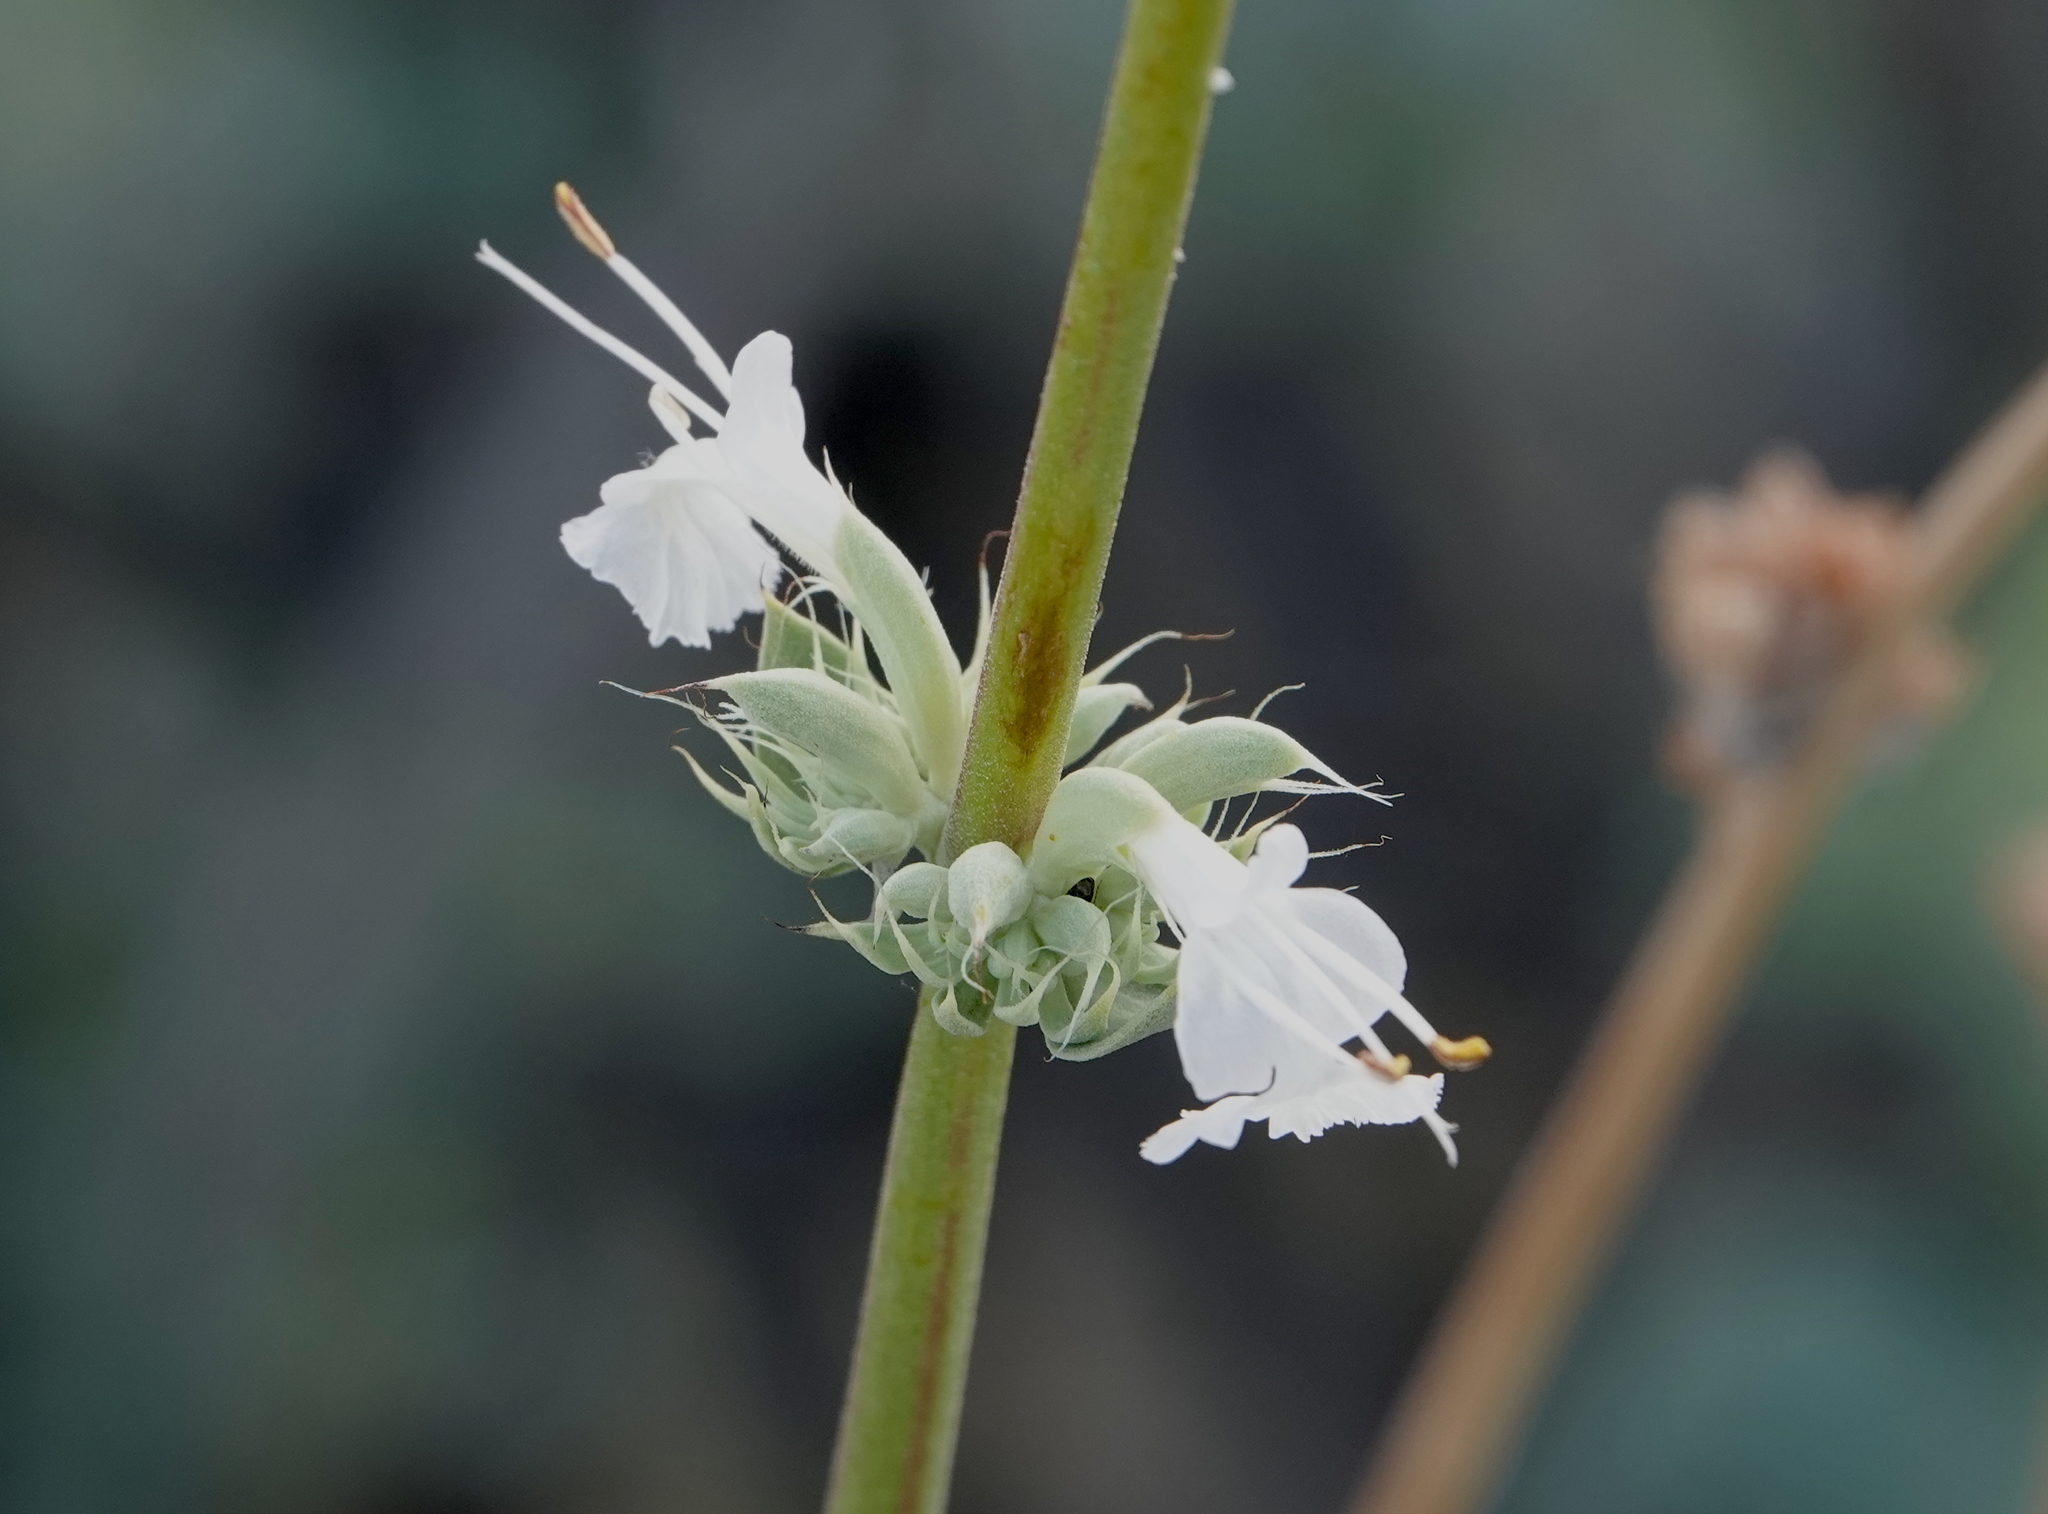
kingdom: Plantae
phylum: Tracheophyta
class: Magnoliopsida
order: Lamiales
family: Lamiaceae
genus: Salvia
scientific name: Salvia vaseyi
